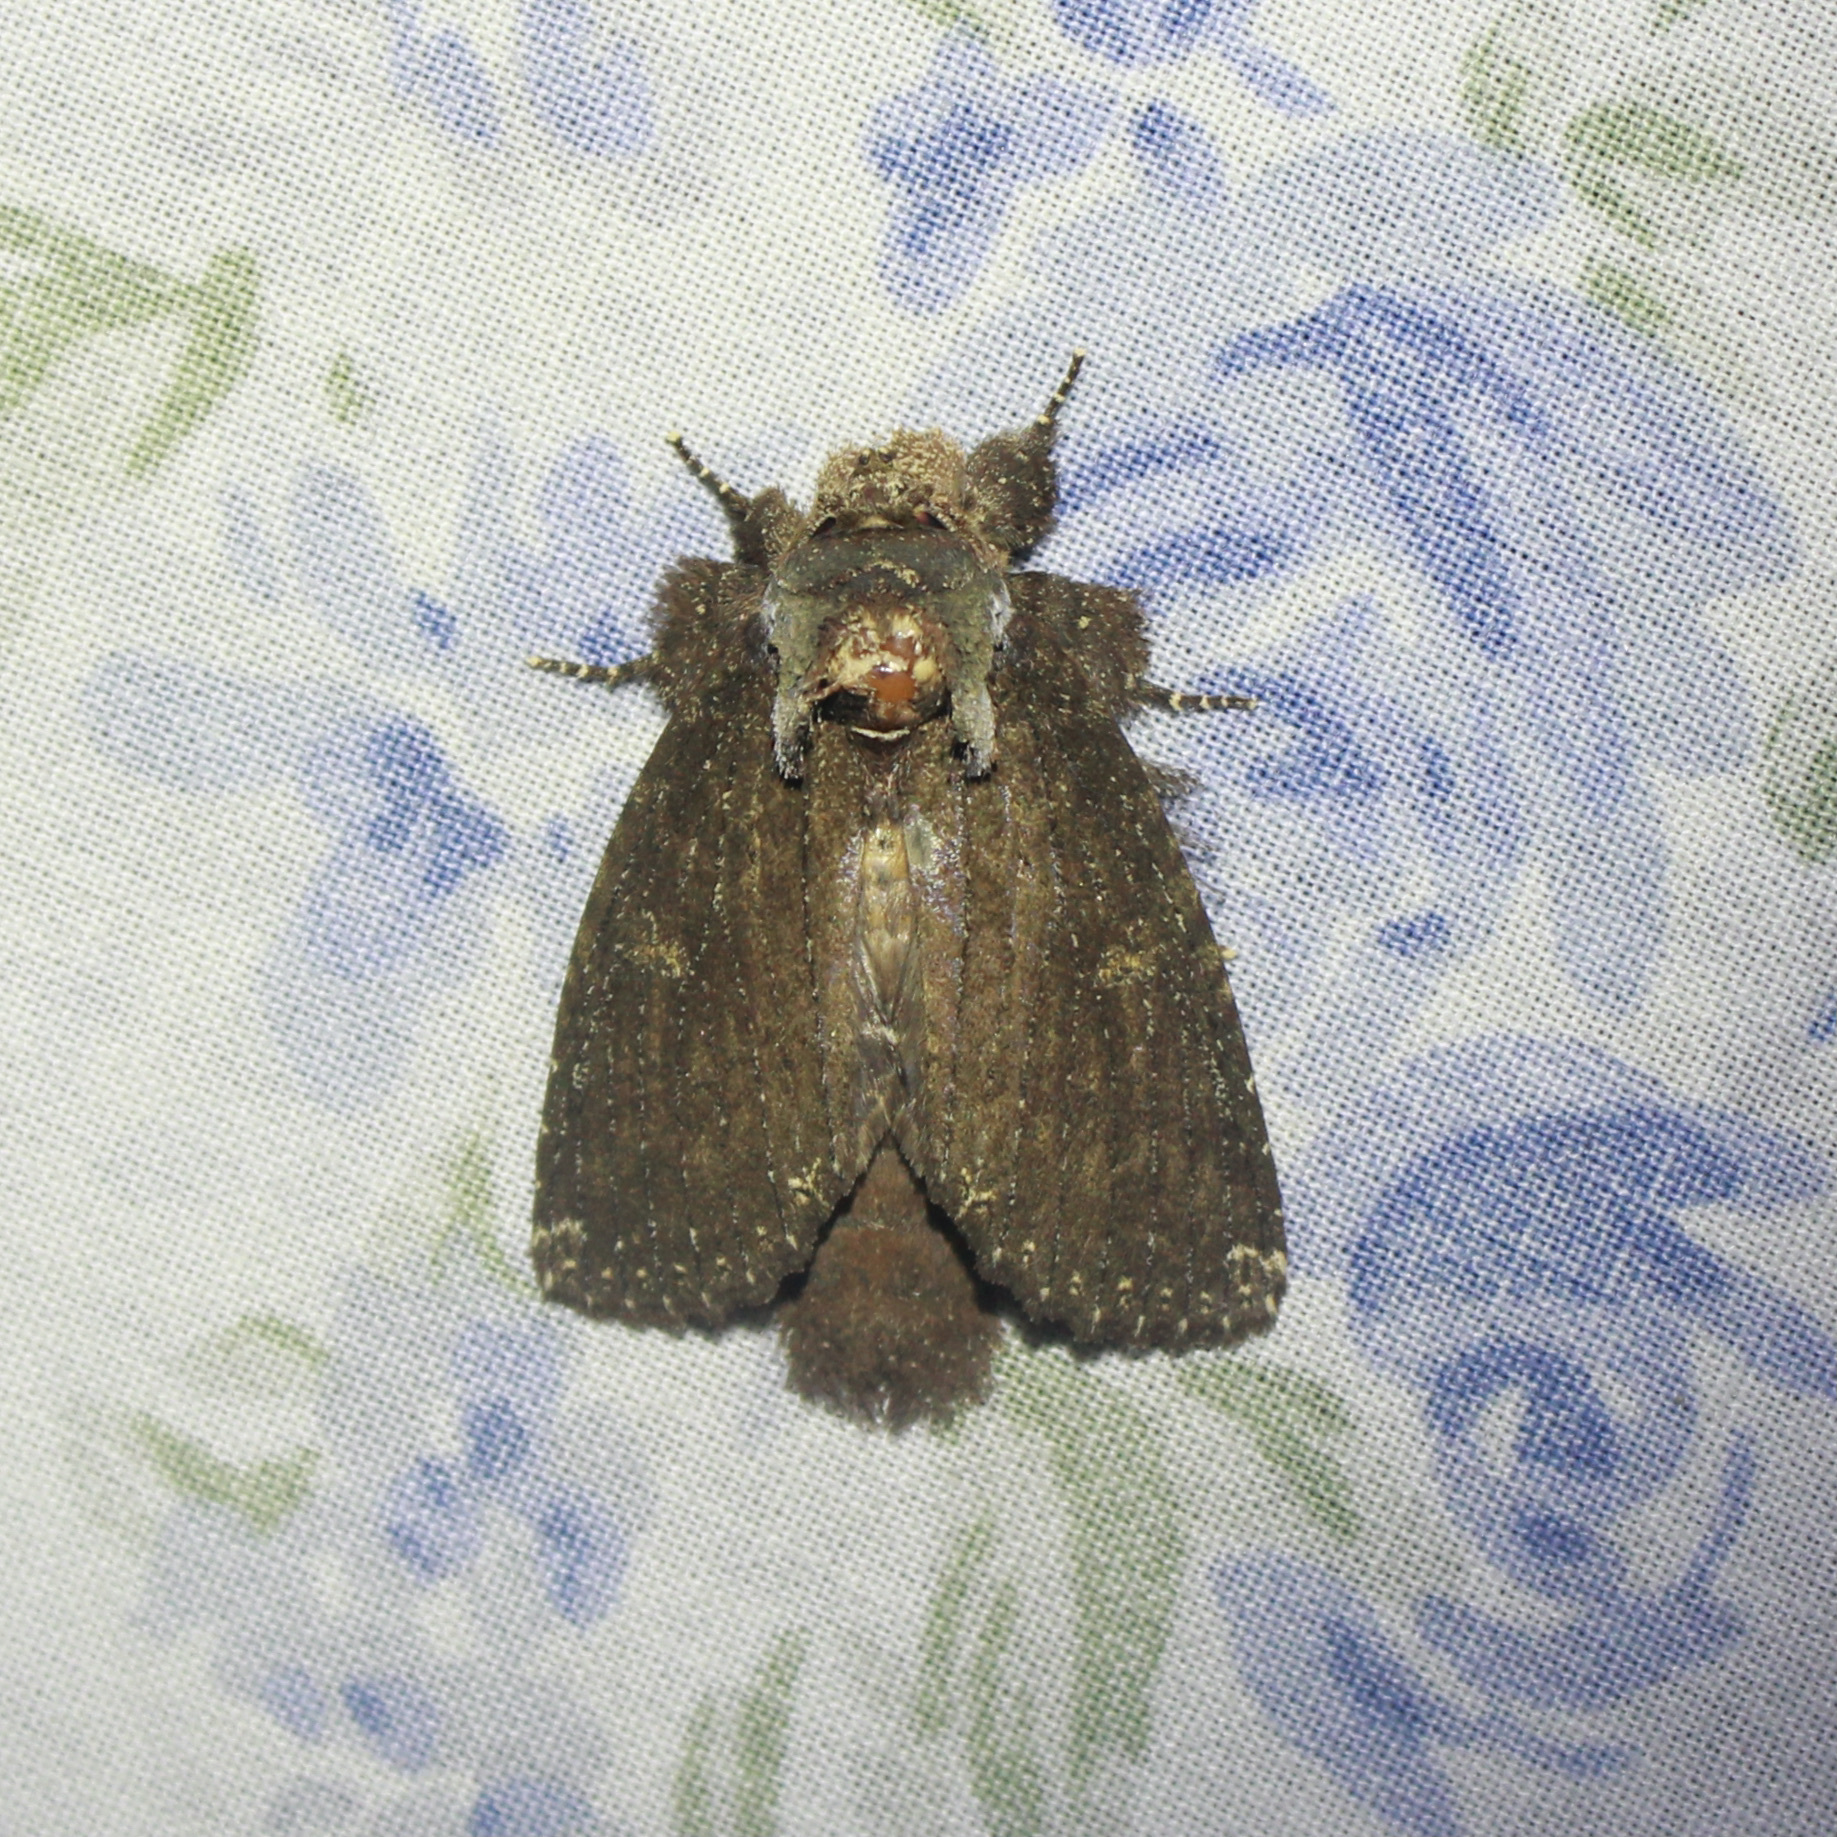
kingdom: Animalia
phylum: Arthropoda
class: Insecta
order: Lepidoptera
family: Notodontidae
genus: Rifargia
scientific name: Rifargia occulta
